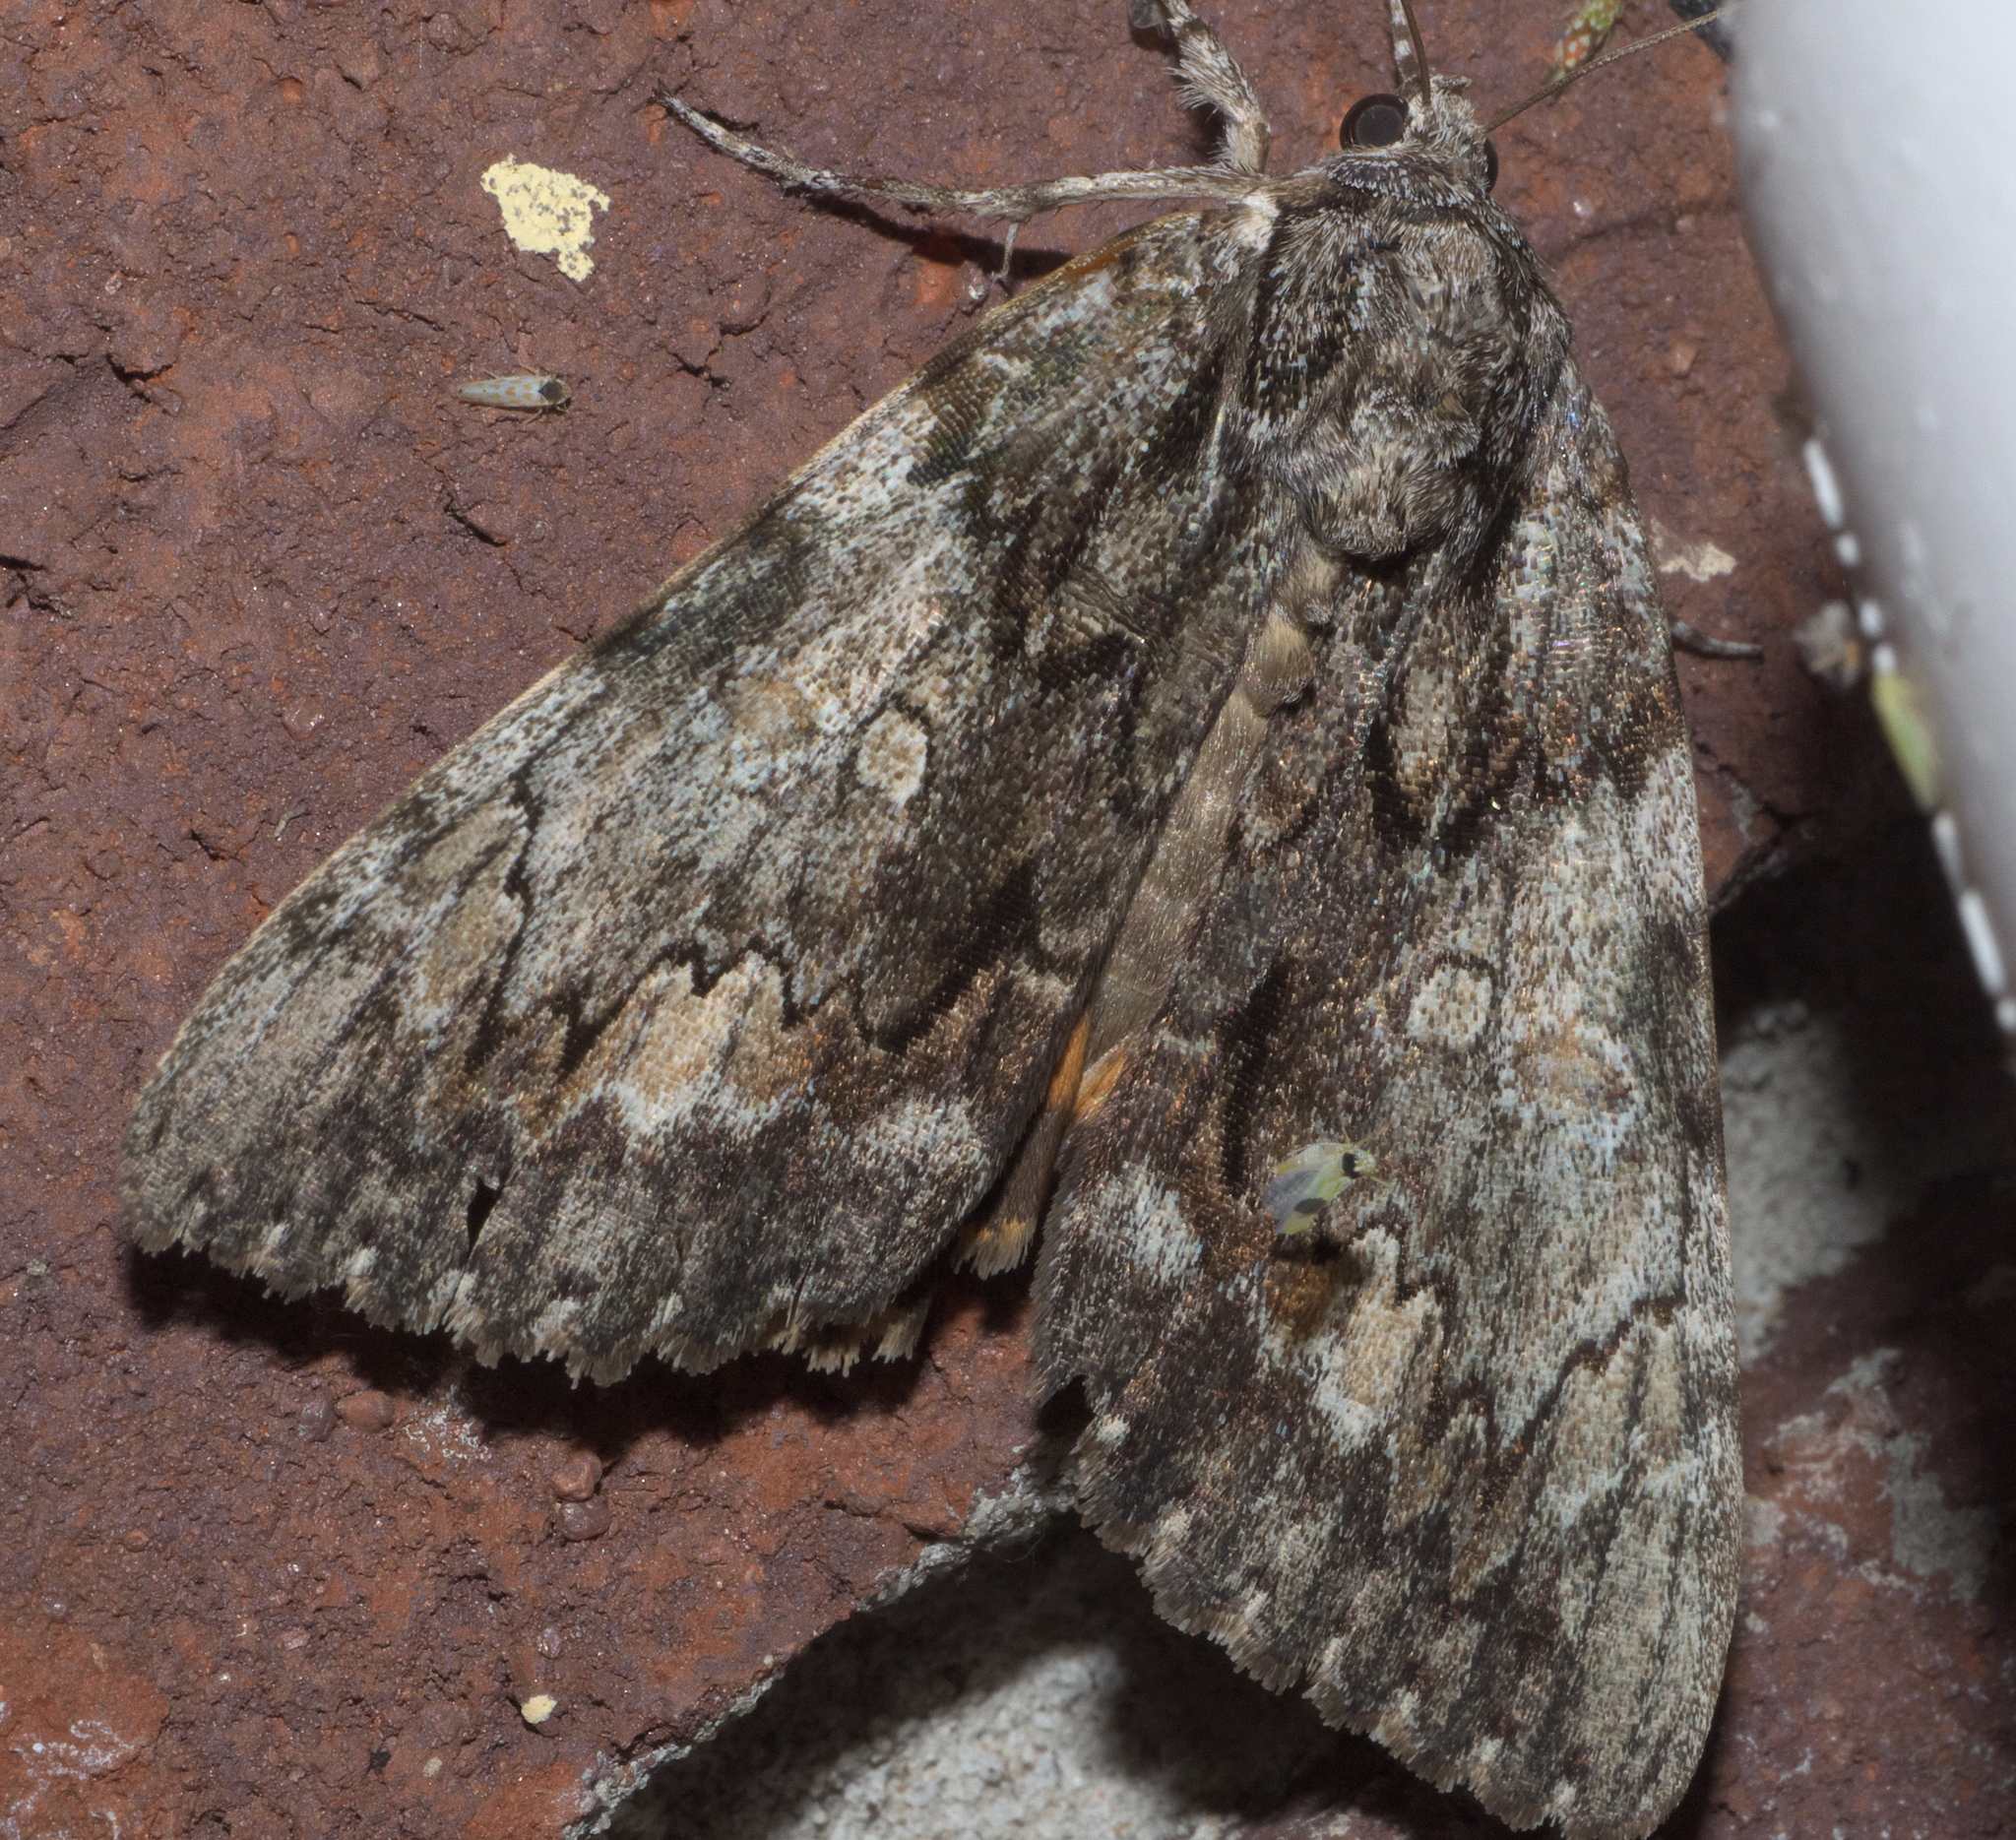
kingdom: Animalia
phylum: Arthropoda
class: Insecta
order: Lepidoptera
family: Erebidae
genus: Catocala
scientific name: Catocala palaeogama
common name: Oldwife underwing
